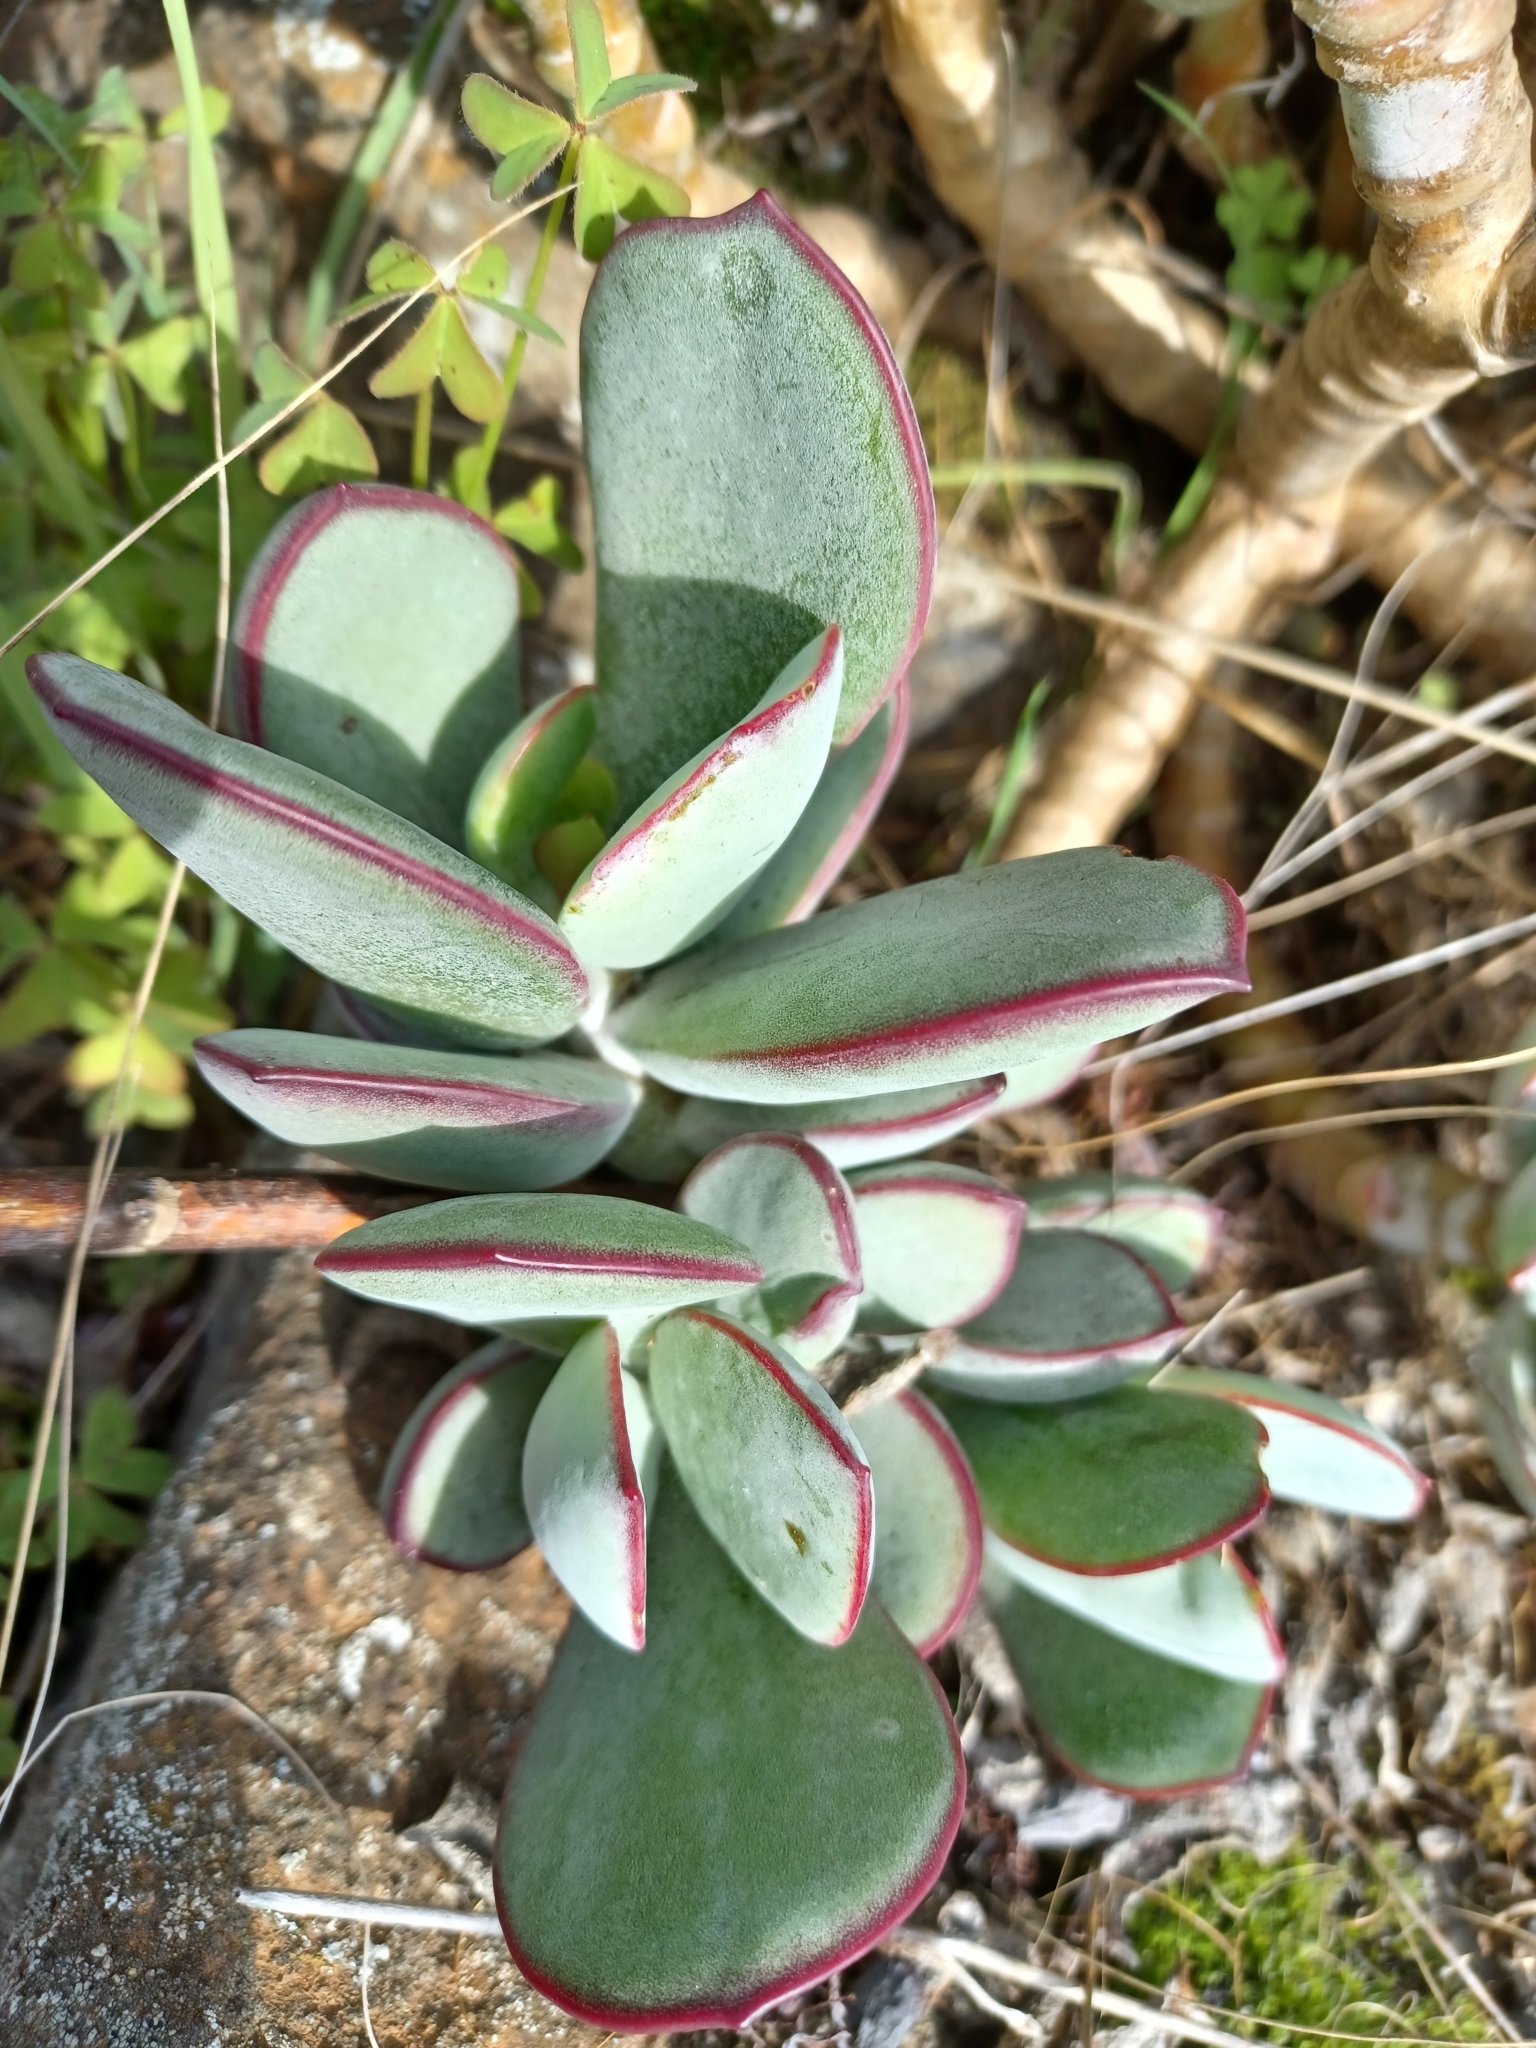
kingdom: Plantae
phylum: Tracheophyta
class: Magnoliopsida
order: Saxifragales
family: Crassulaceae
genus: Cotyledon
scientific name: Cotyledon orbiculata
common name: Pig's ear
